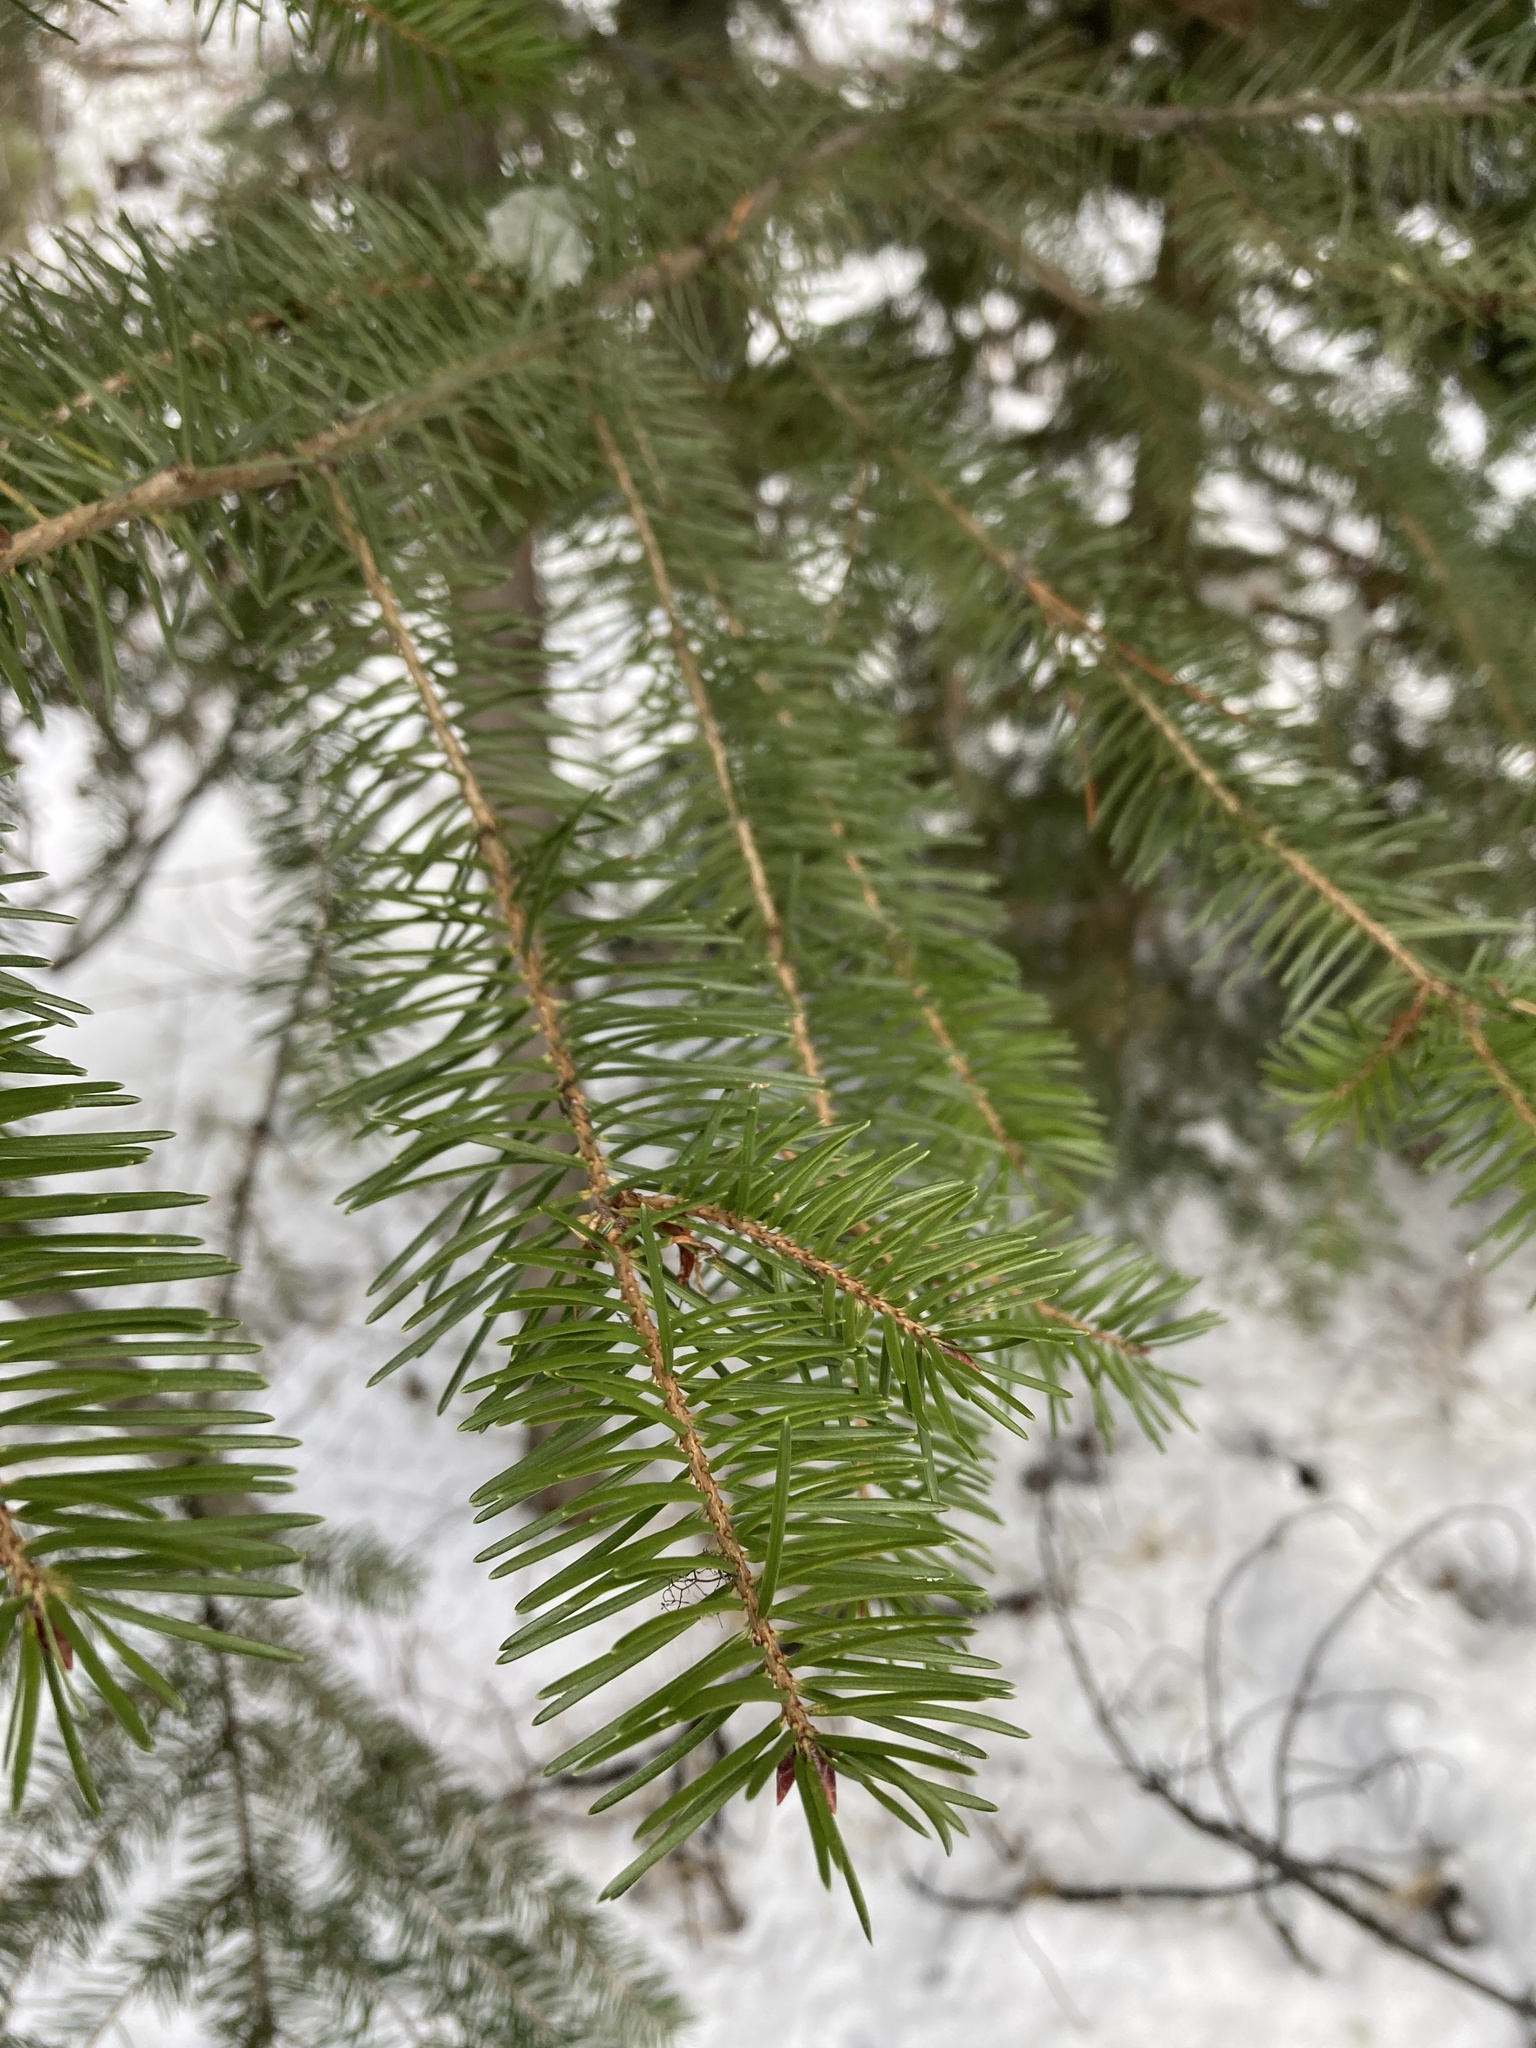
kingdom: Plantae
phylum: Tracheophyta
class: Pinopsida
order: Pinales
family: Pinaceae
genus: Pseudotsuga
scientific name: Pseudotsuga menziesii
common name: Douglas fir
